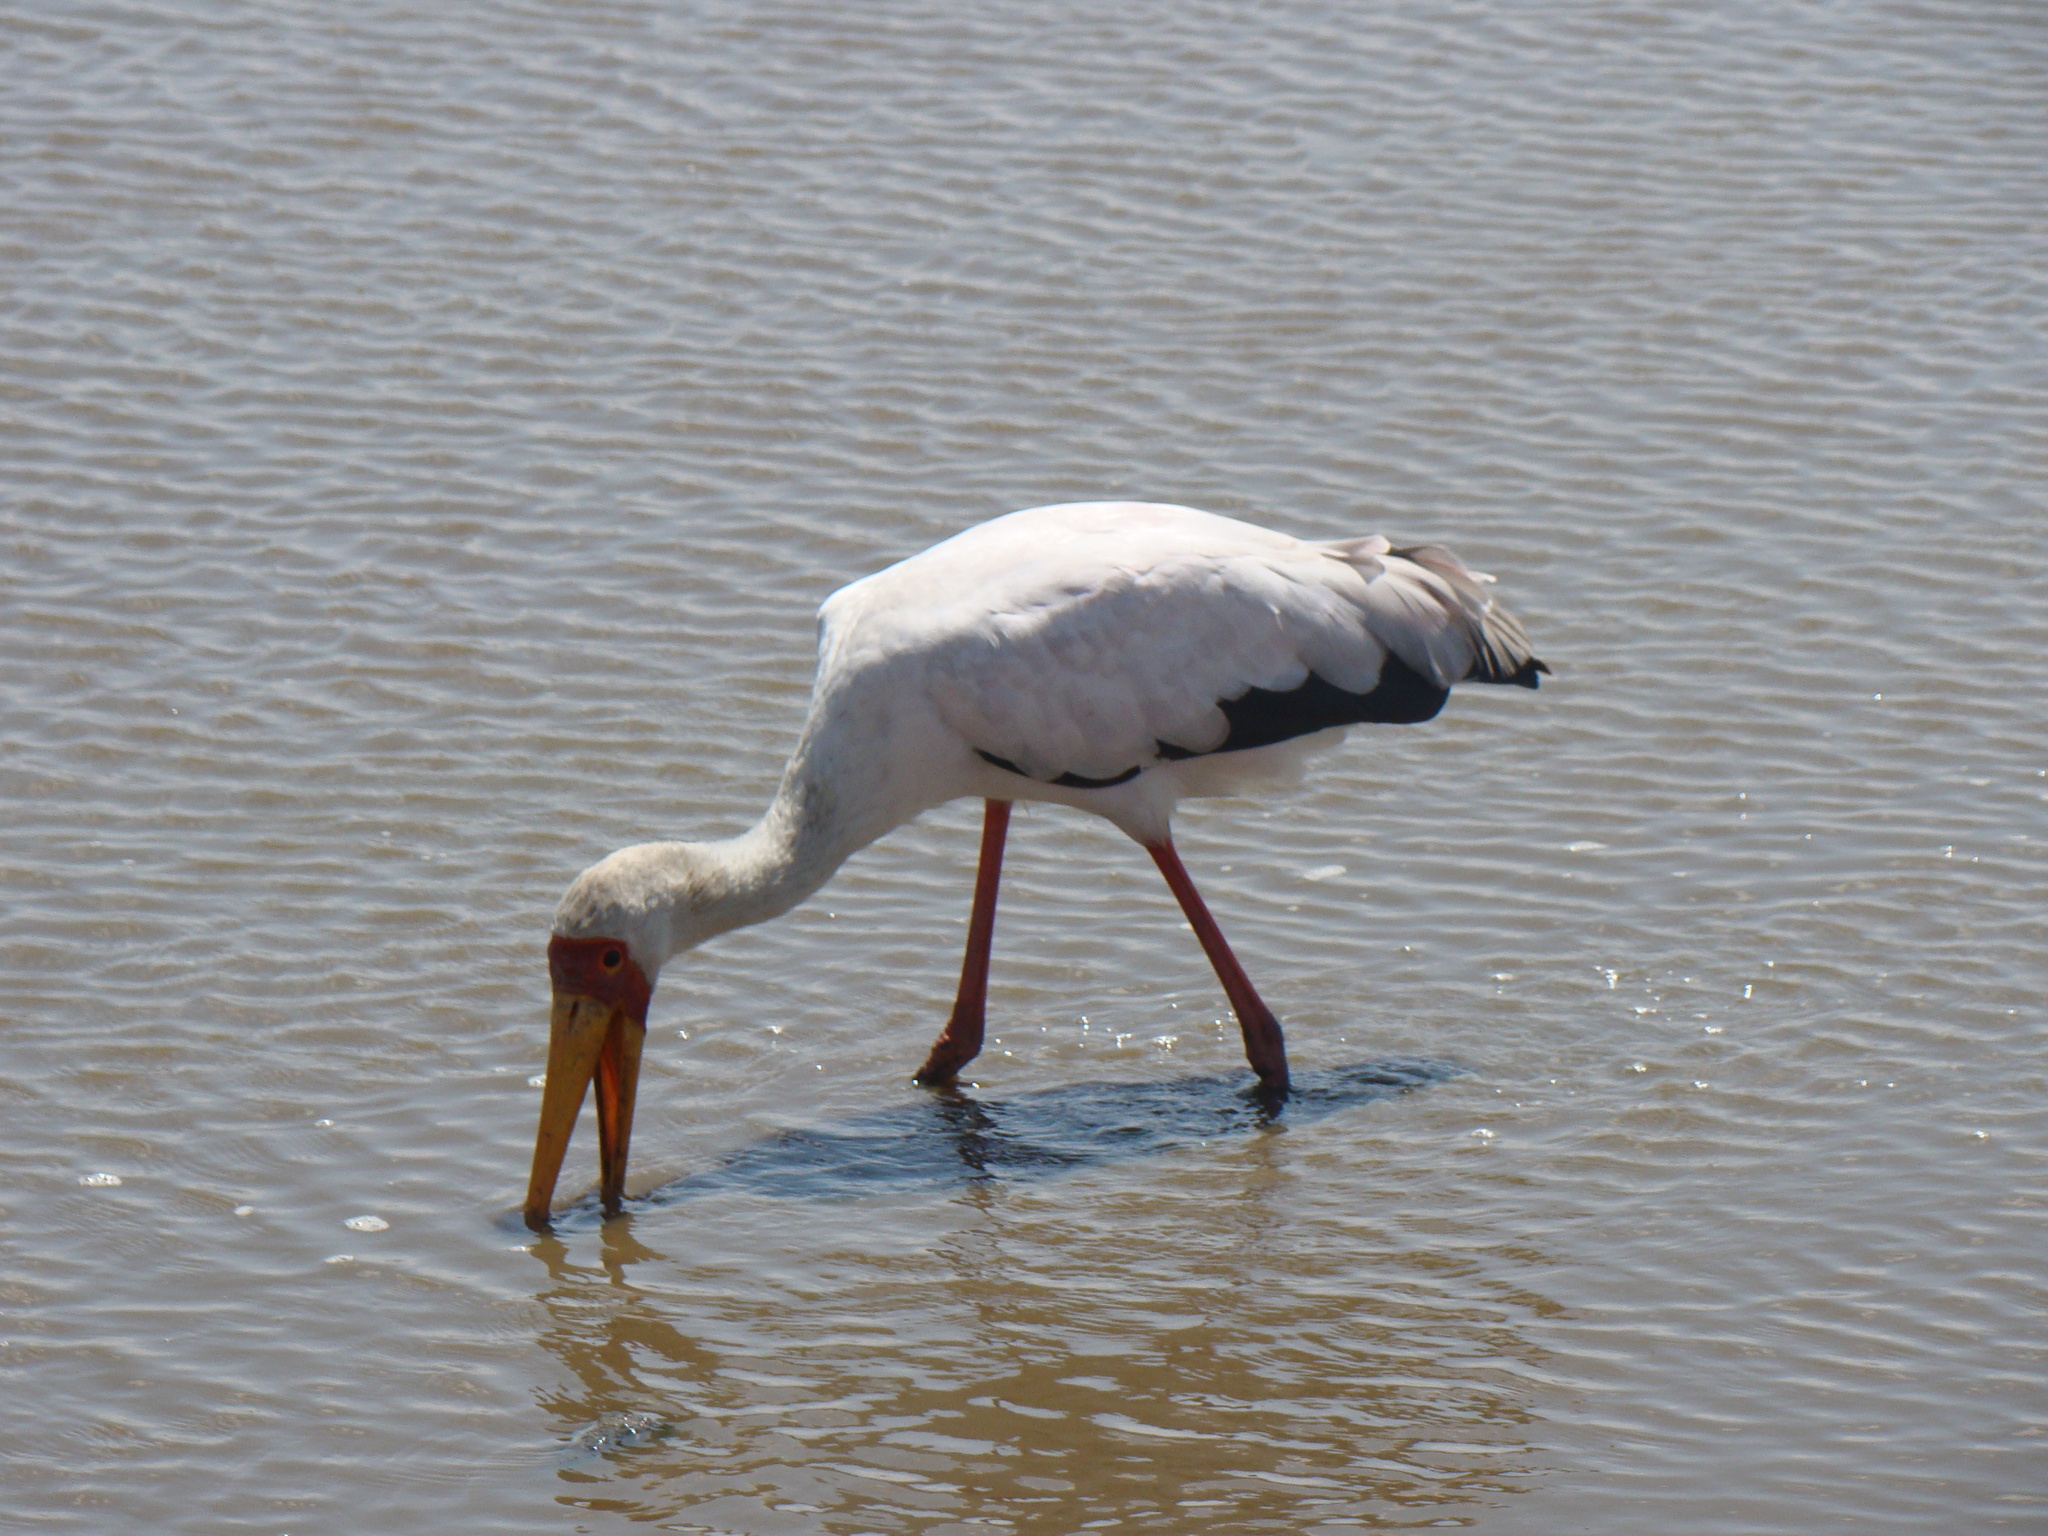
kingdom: Animalia
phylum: Chordata
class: Aves
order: Ciconiiformes
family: Ciconiidae
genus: Mycteria
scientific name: Mycteria ibis
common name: Yellow-billed stork
